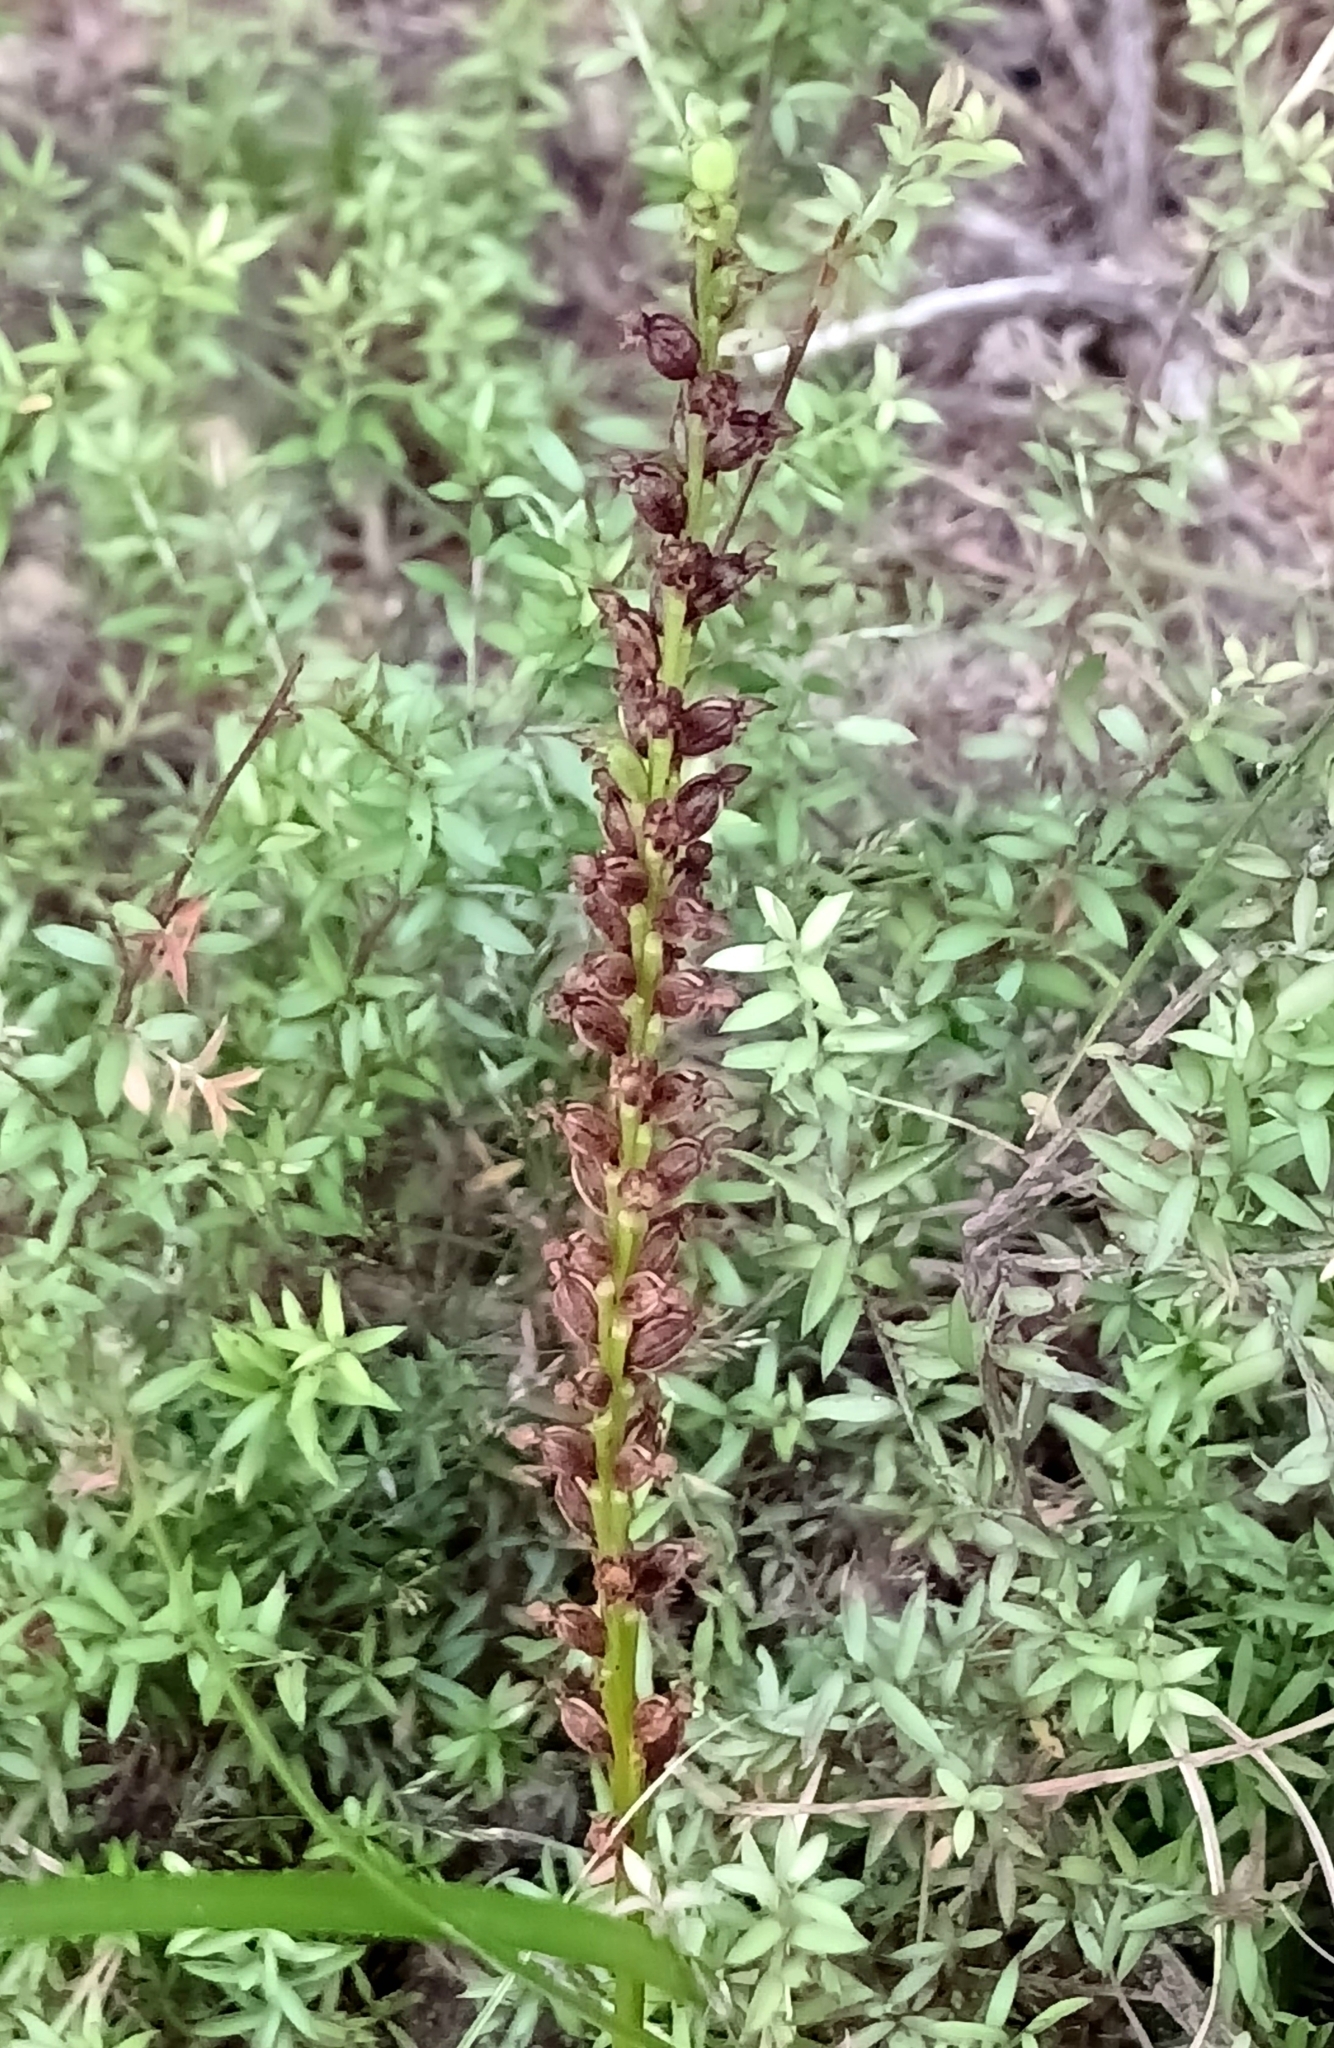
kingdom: Plantae
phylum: Tracheophyta
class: Liliopsida
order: Asparagales
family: Orchidaceae
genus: Microtis
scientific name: Microtis unifolia
